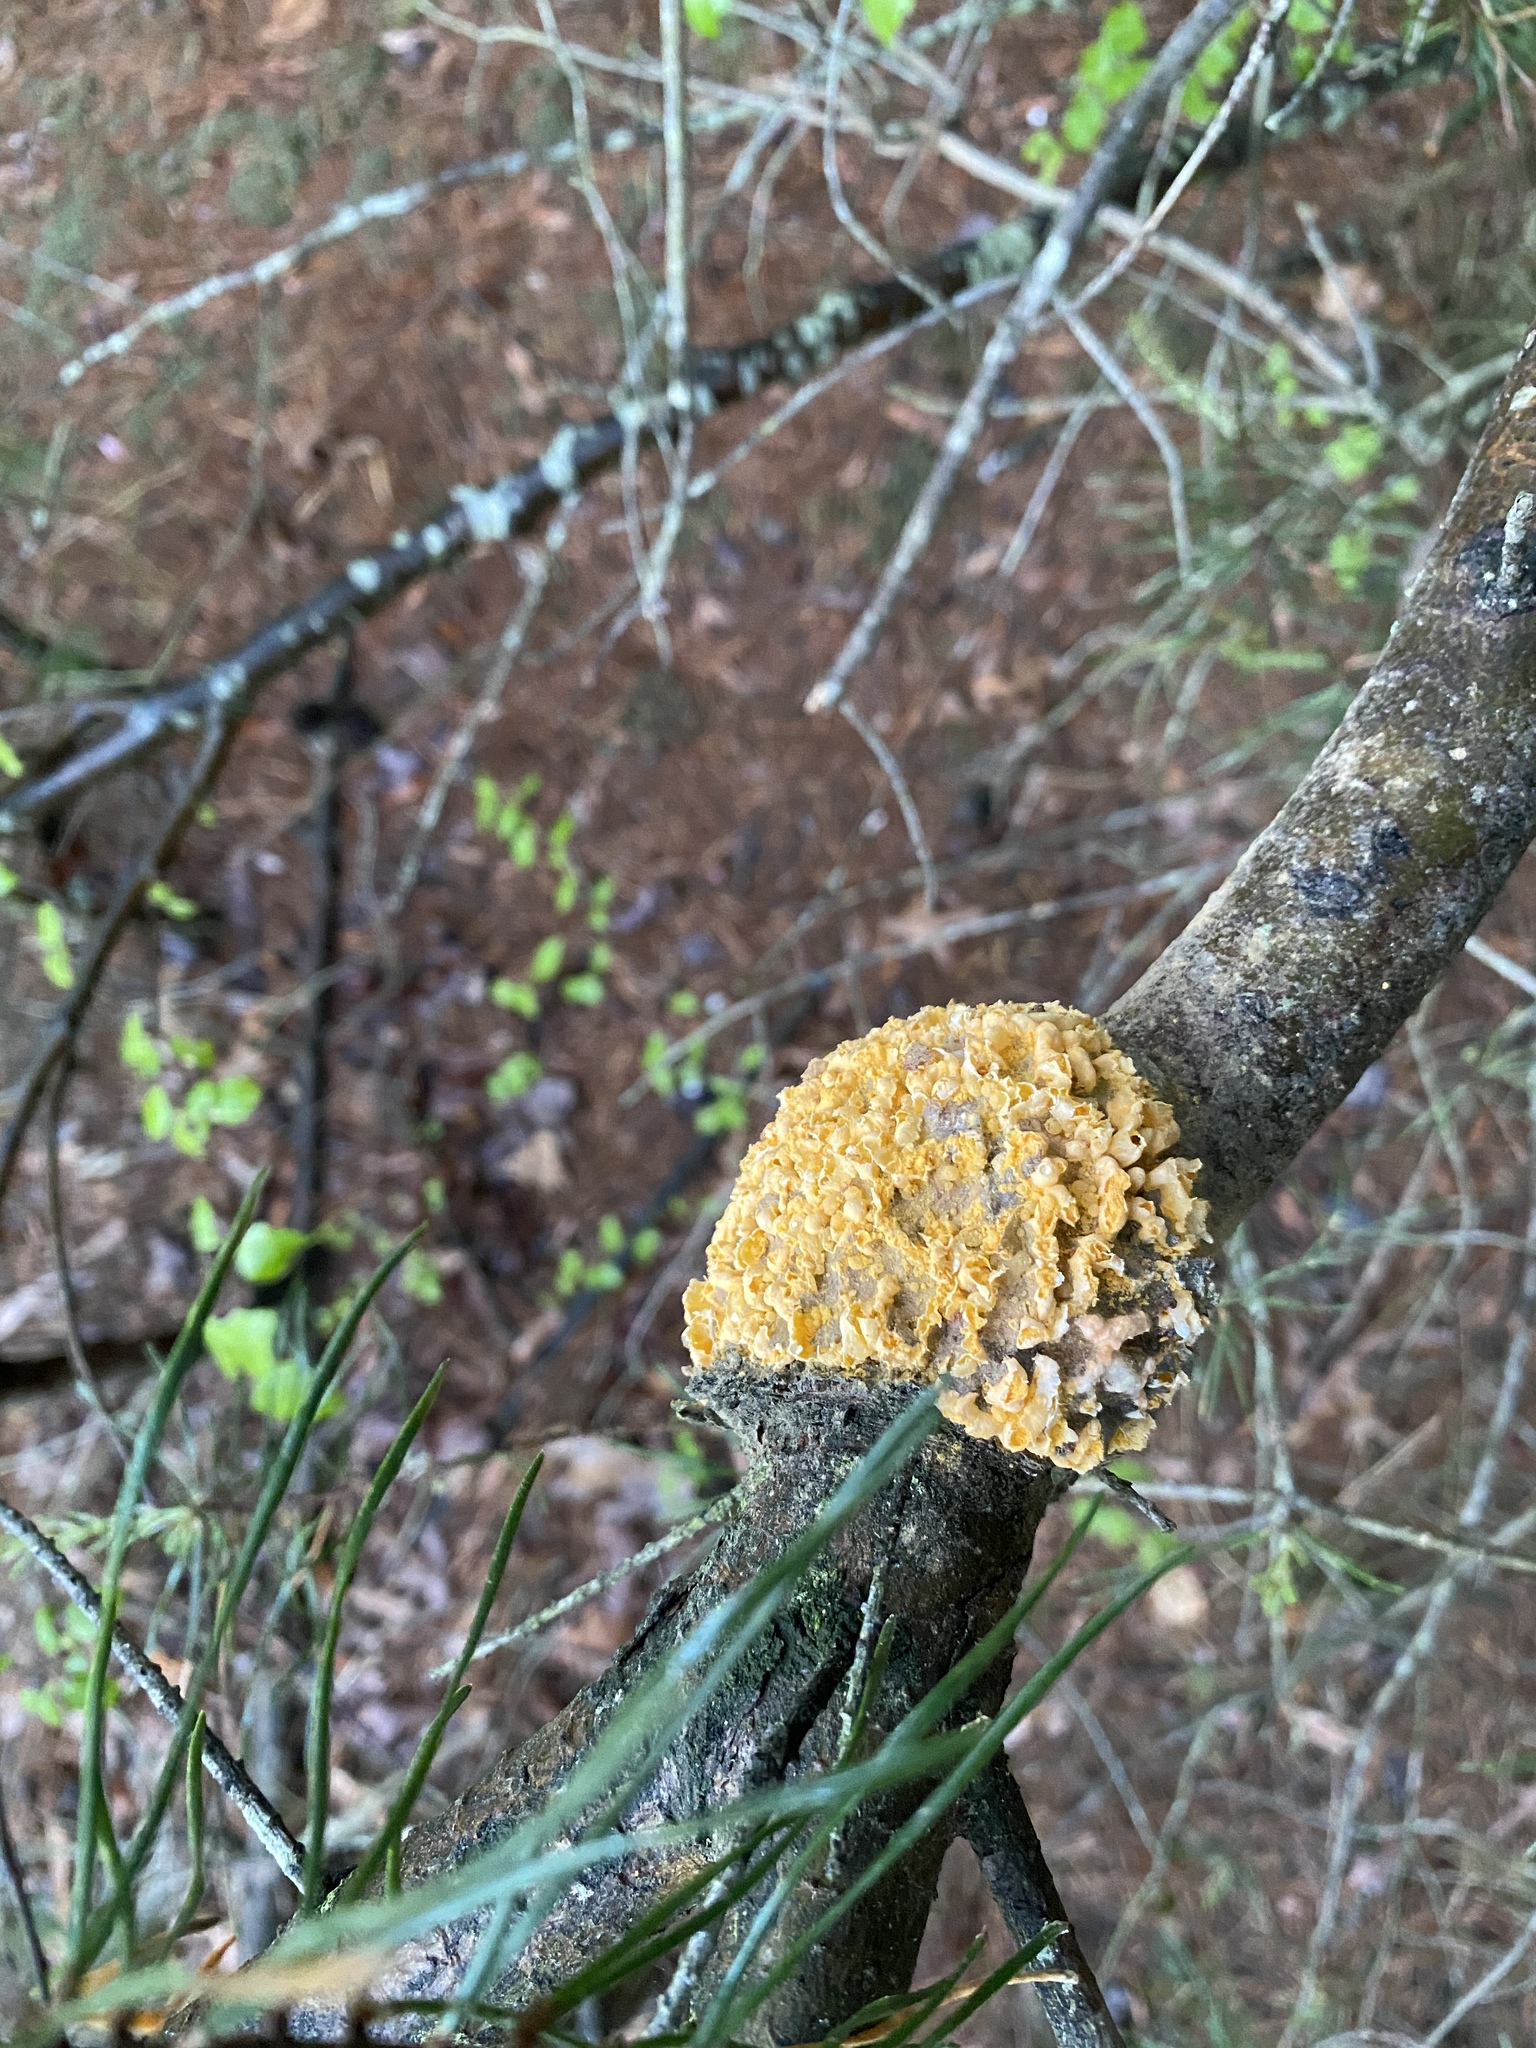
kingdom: Fungi
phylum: Basidiomycota
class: Pucciniomycetes
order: Pucciniales
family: Cronartiaceae
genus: Cronartium
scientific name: Cronartium quercuum
